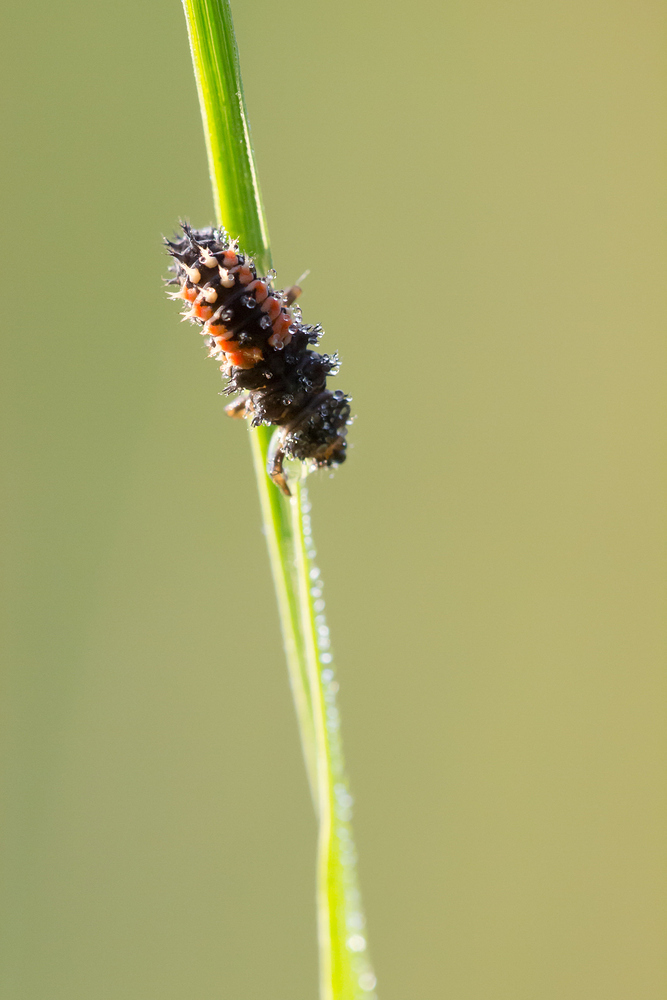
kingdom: Animalia
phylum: Arthropoda
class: Insecta
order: Coleoptera
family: Coccinellidae
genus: Harmonia
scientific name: Harmonia axyridis
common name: Harlequin ladybird
